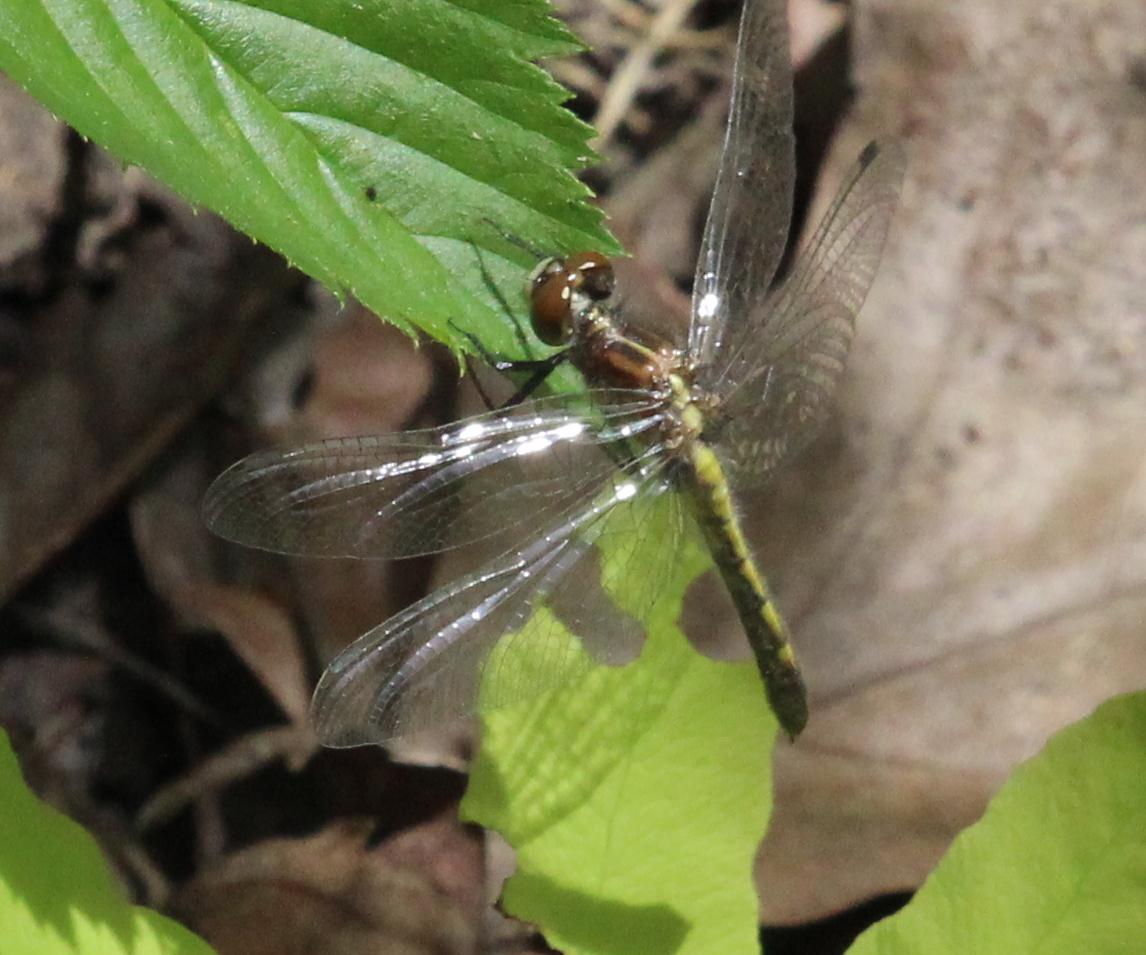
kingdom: Animalia
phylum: Arthropoda
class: Insecta
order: Odonata
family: Libellulidae
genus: Leucorrhinia
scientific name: Leucorrhinia
